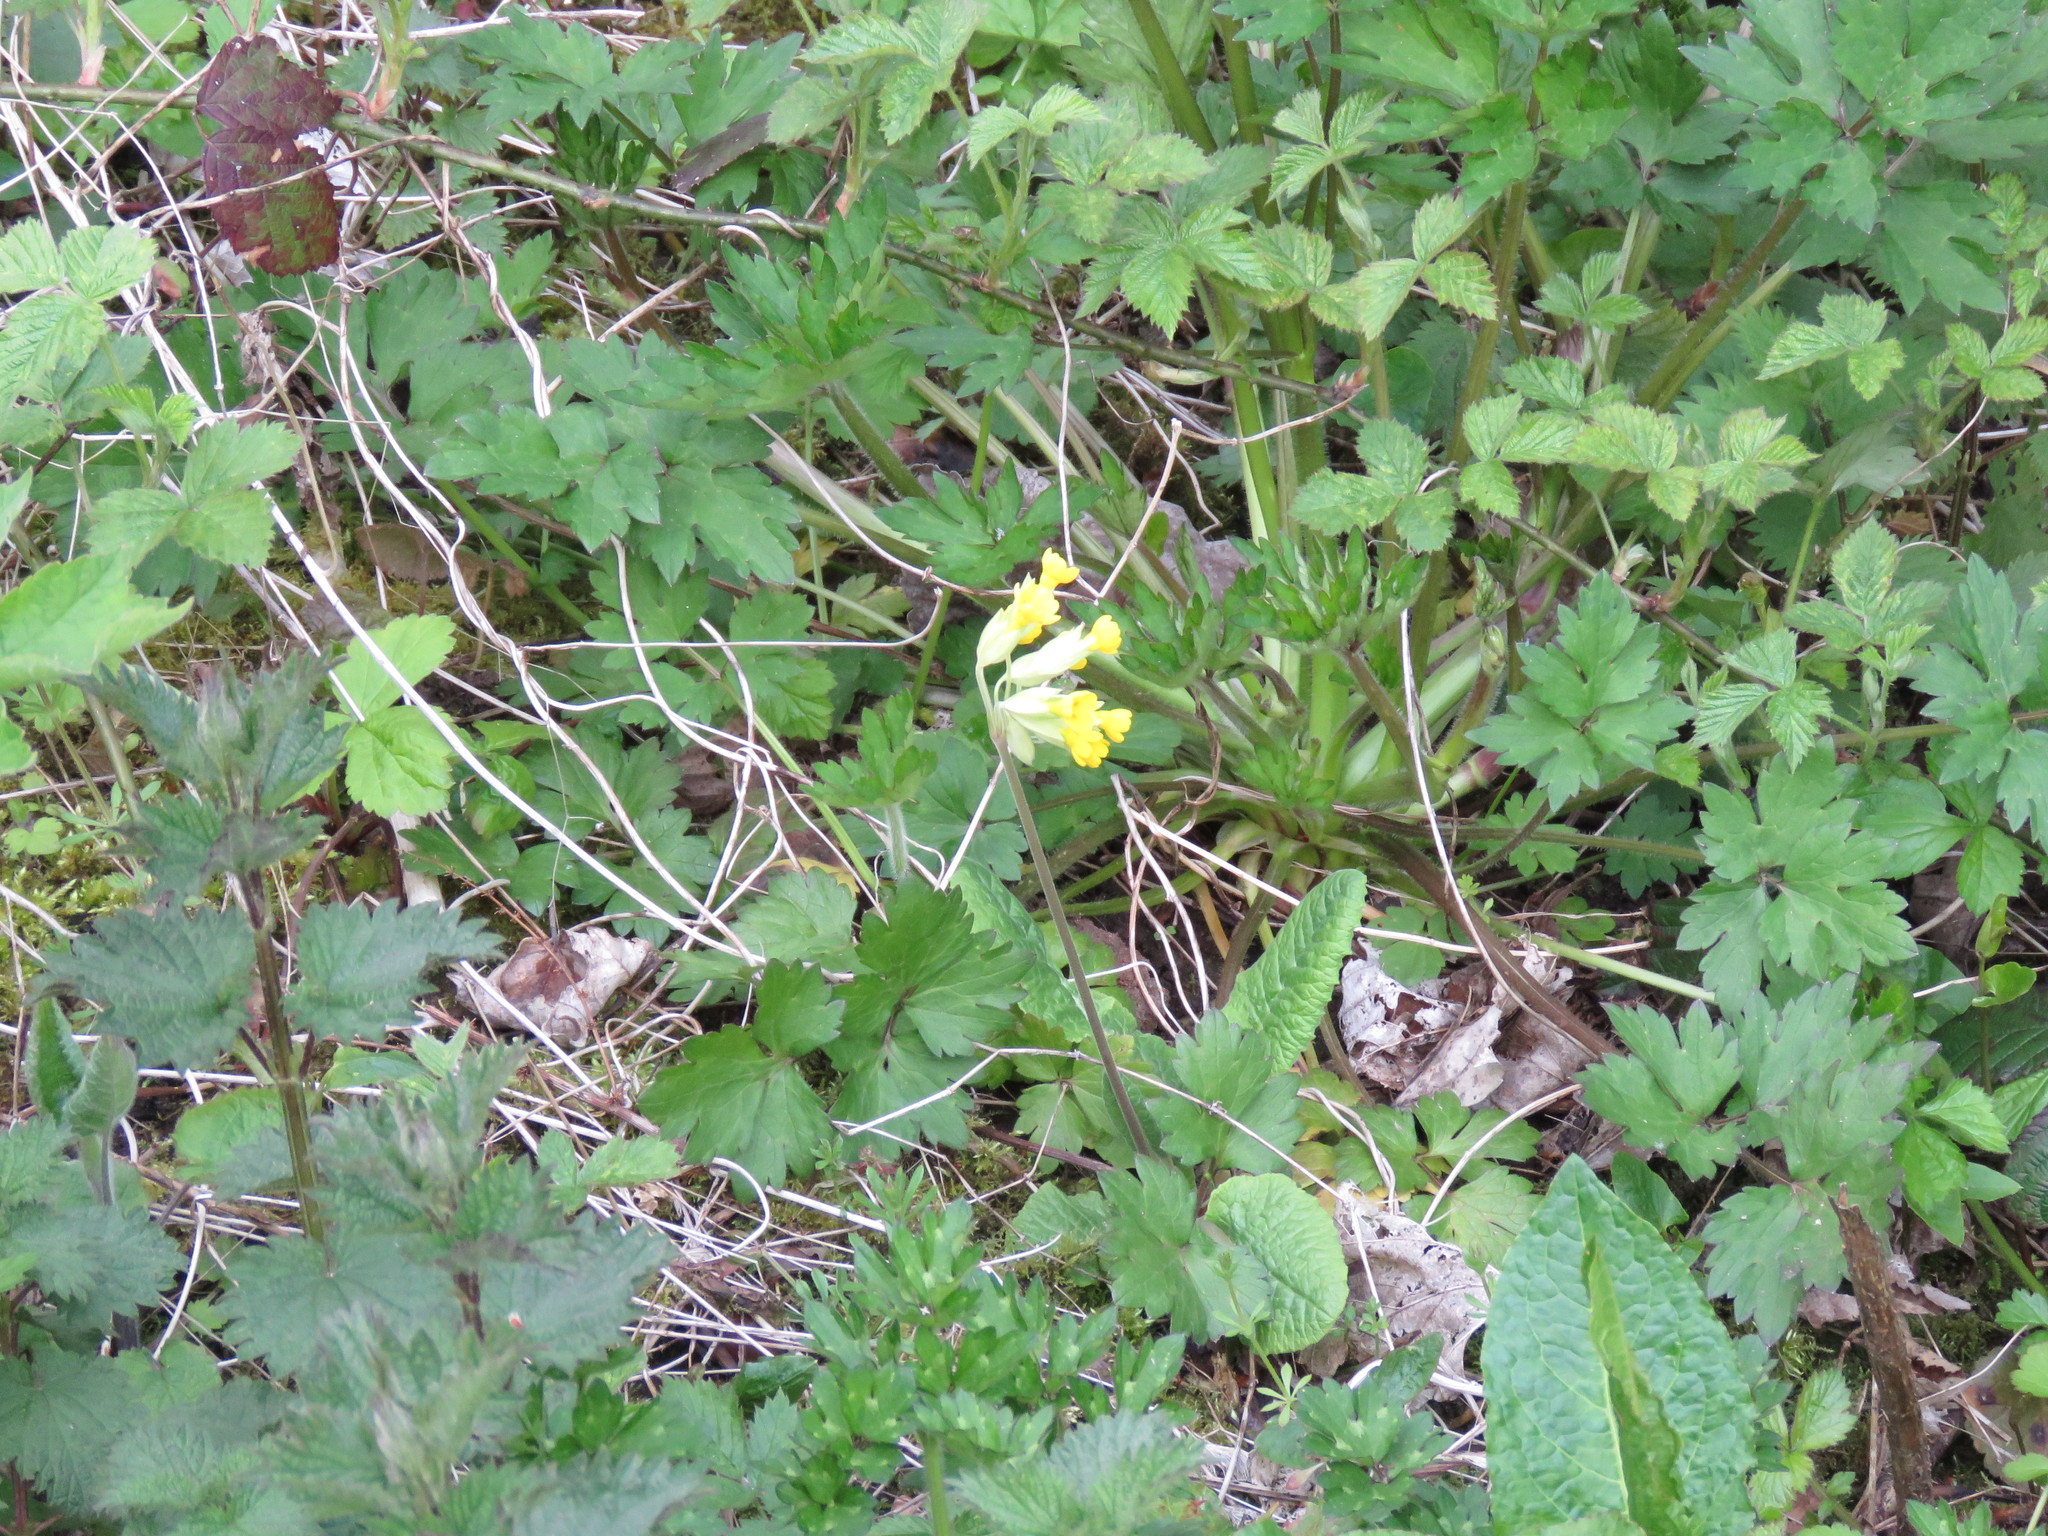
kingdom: Plantae
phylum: Tracheophyta
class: Magnoliopsida
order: Ericales
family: Primulaceae
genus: Primula
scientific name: Primula veris
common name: Cowslip
